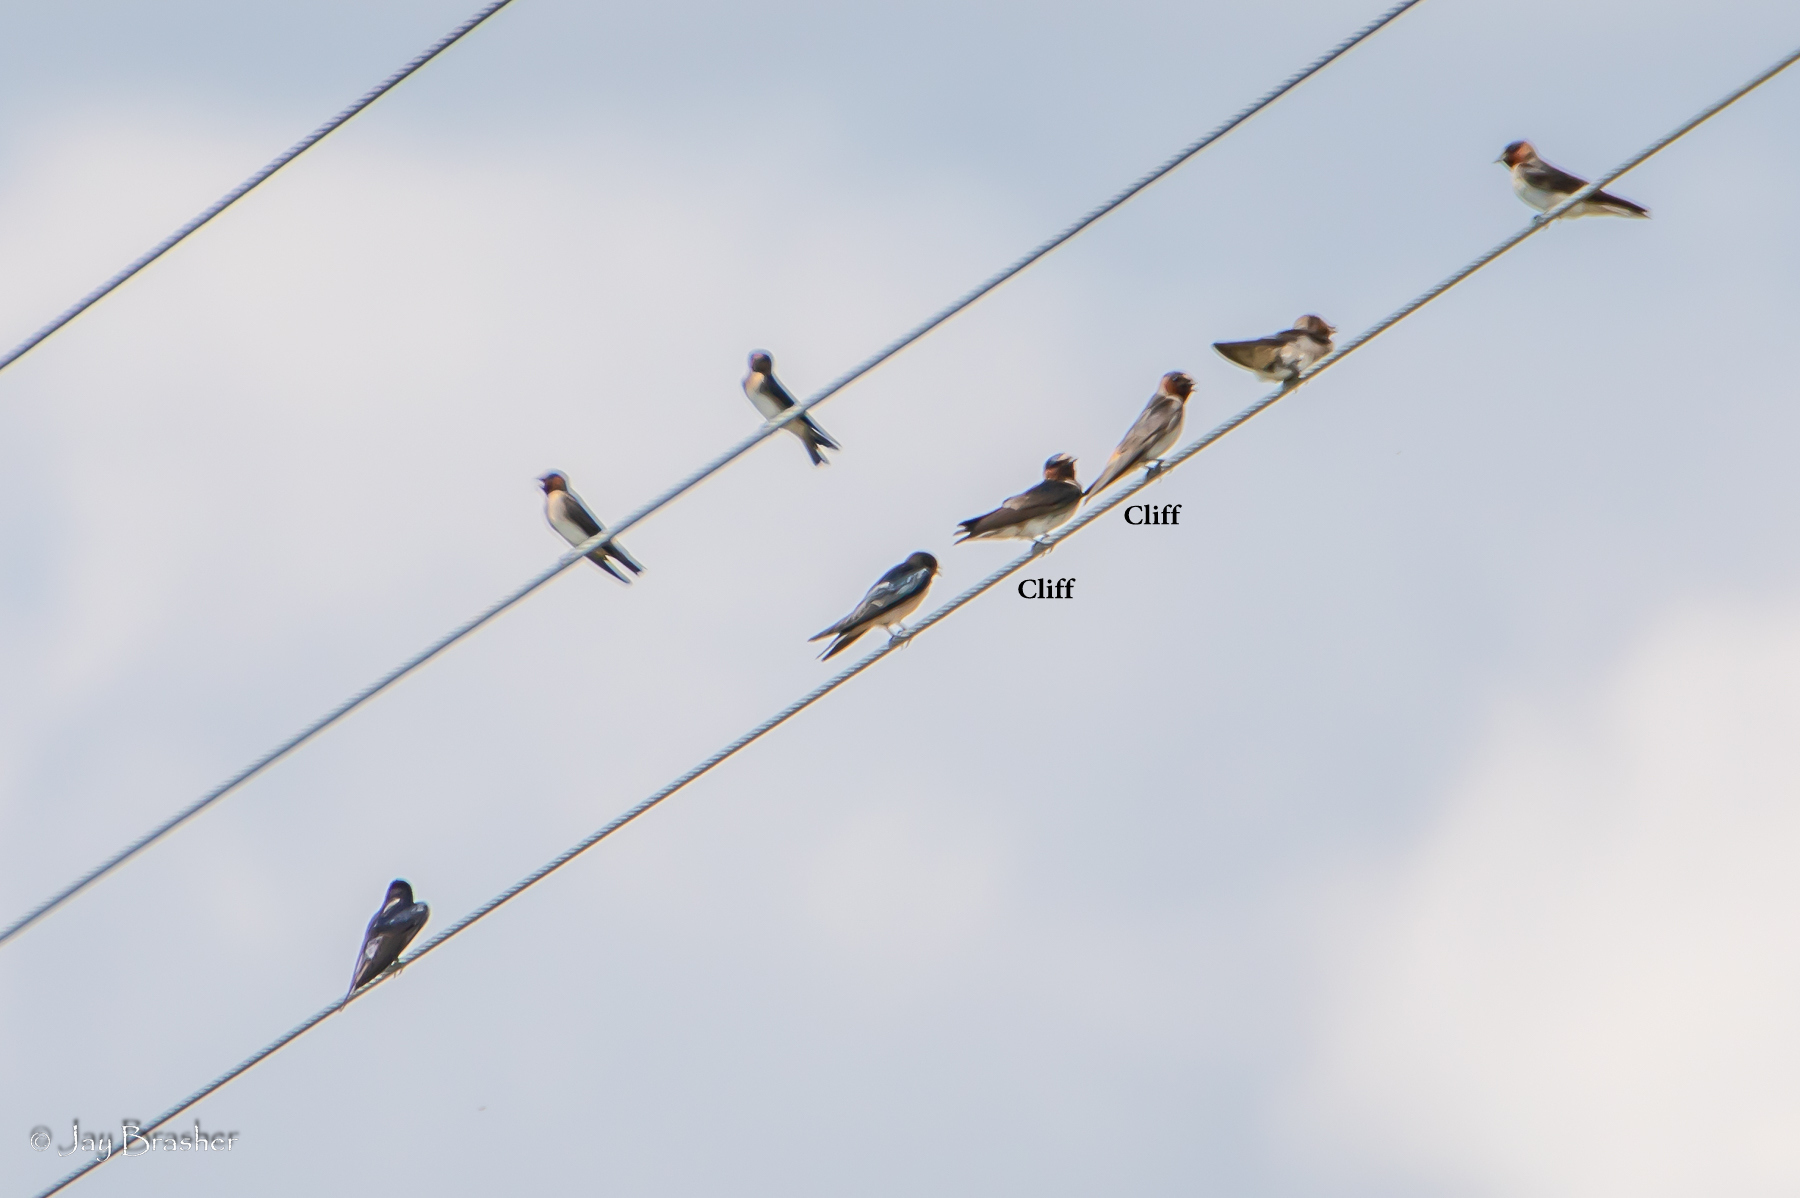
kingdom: Animalia
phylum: Chordata
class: Aves
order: Passeriformes
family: Hirundinidae
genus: Petrochelidon
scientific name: Petrochelidon pyrrhonota
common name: American cliff swallow
